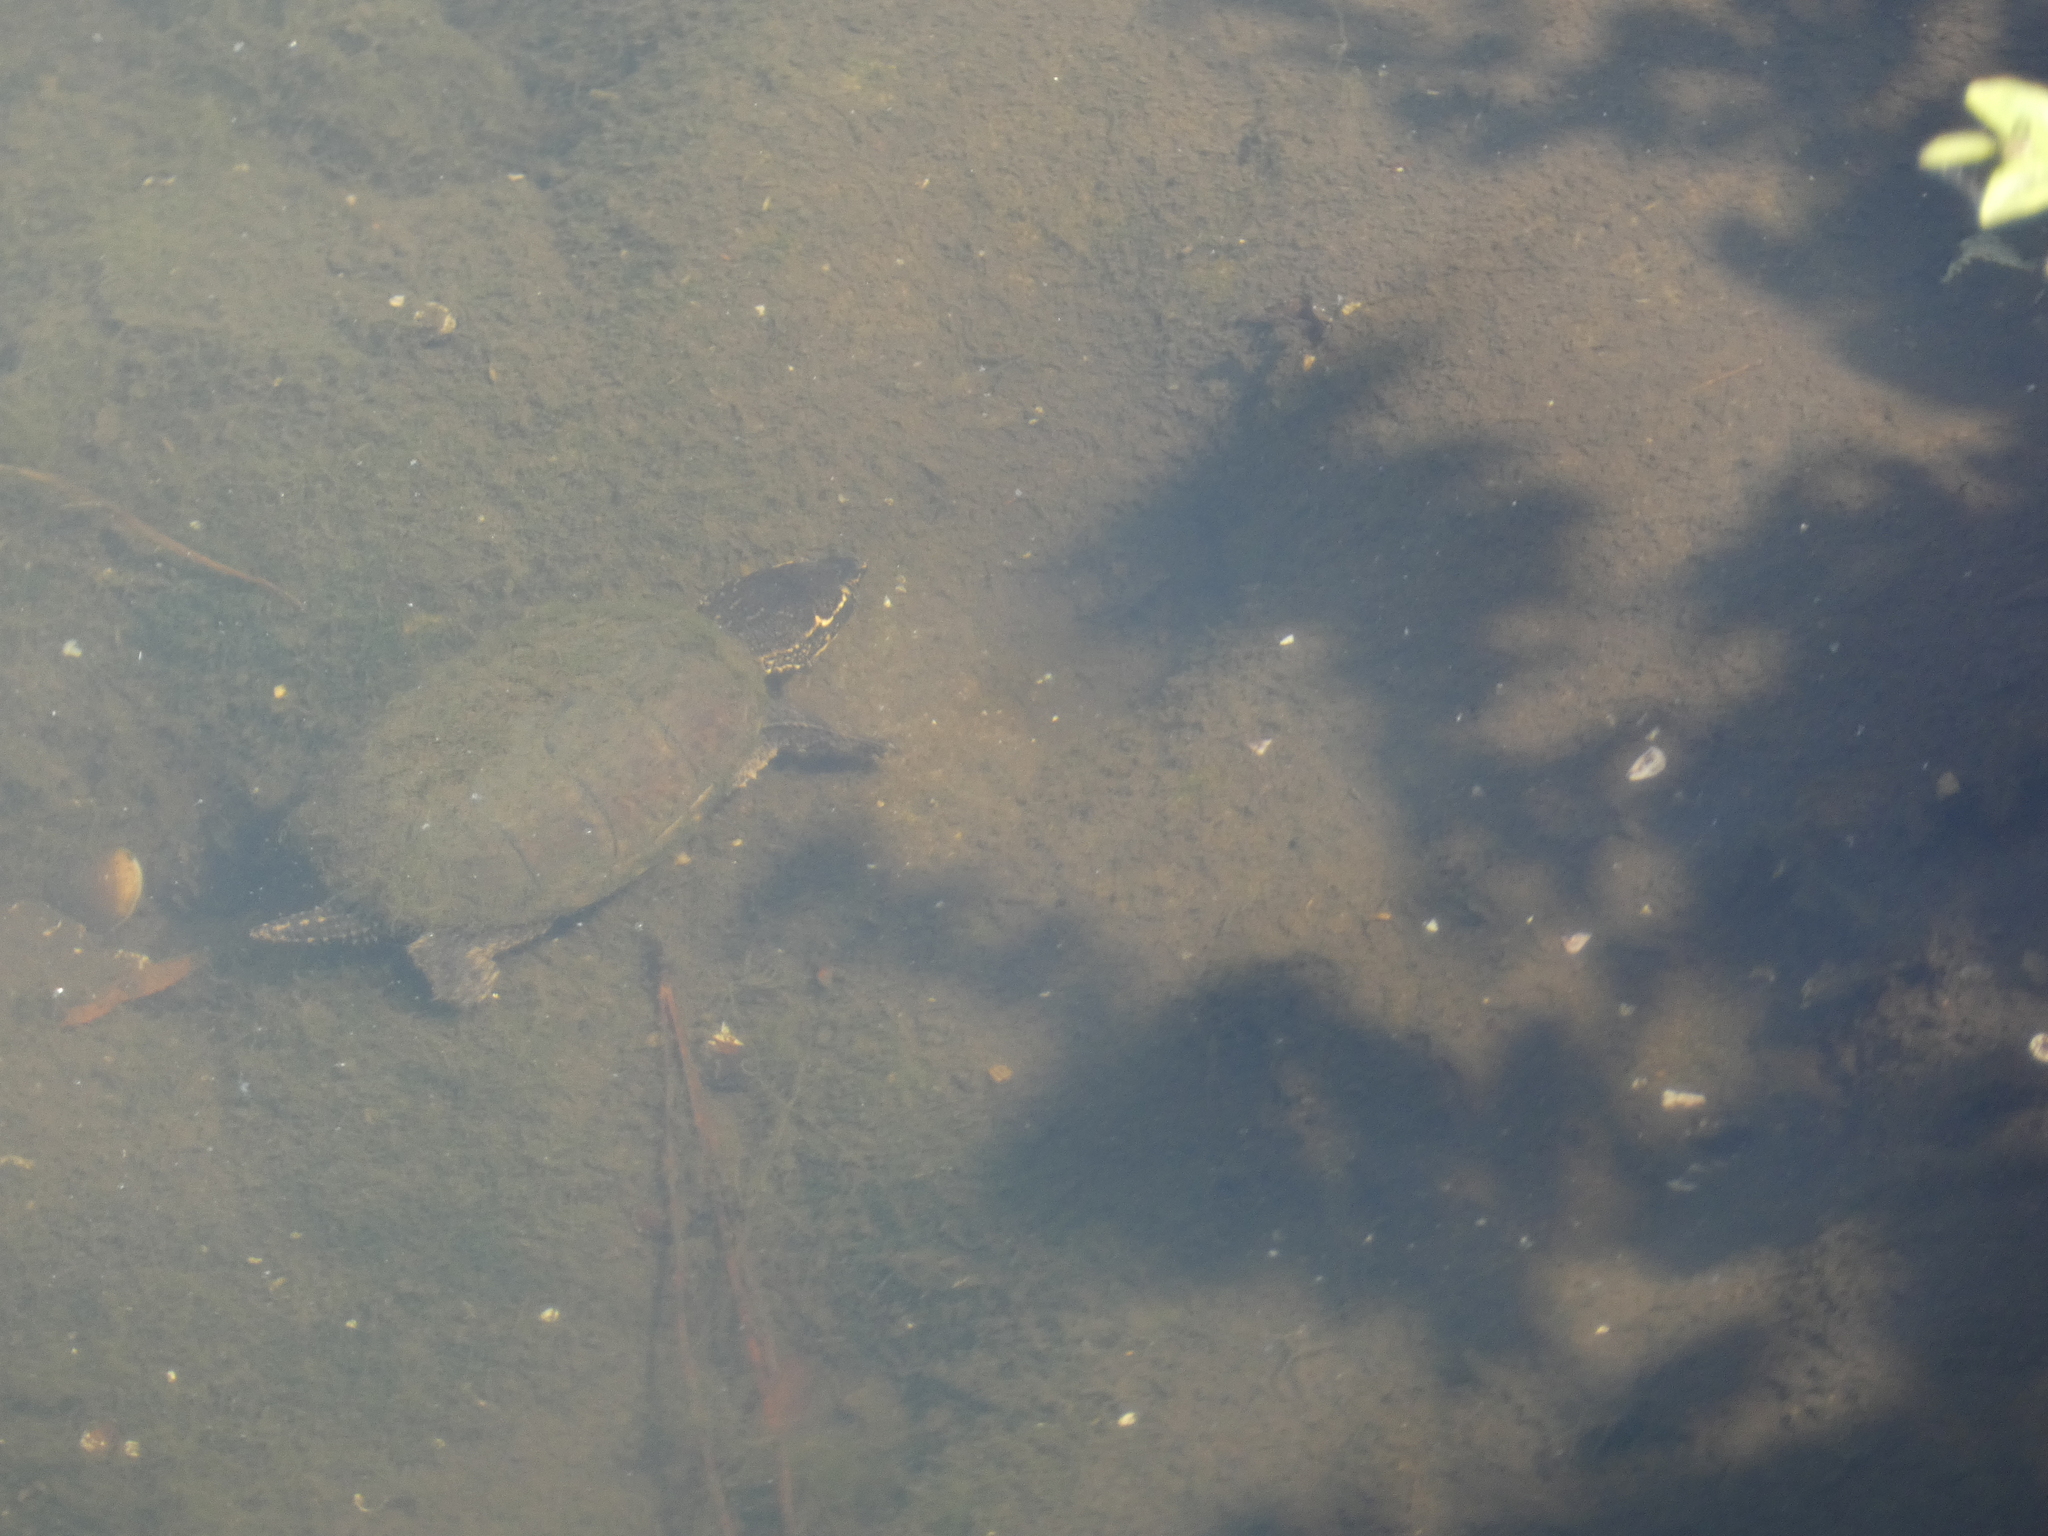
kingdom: Animalia
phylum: Chordata
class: Testudines
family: Kinosternidae
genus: Sternotherus
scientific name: Sternotherus odoratus
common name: Common musk turtle
